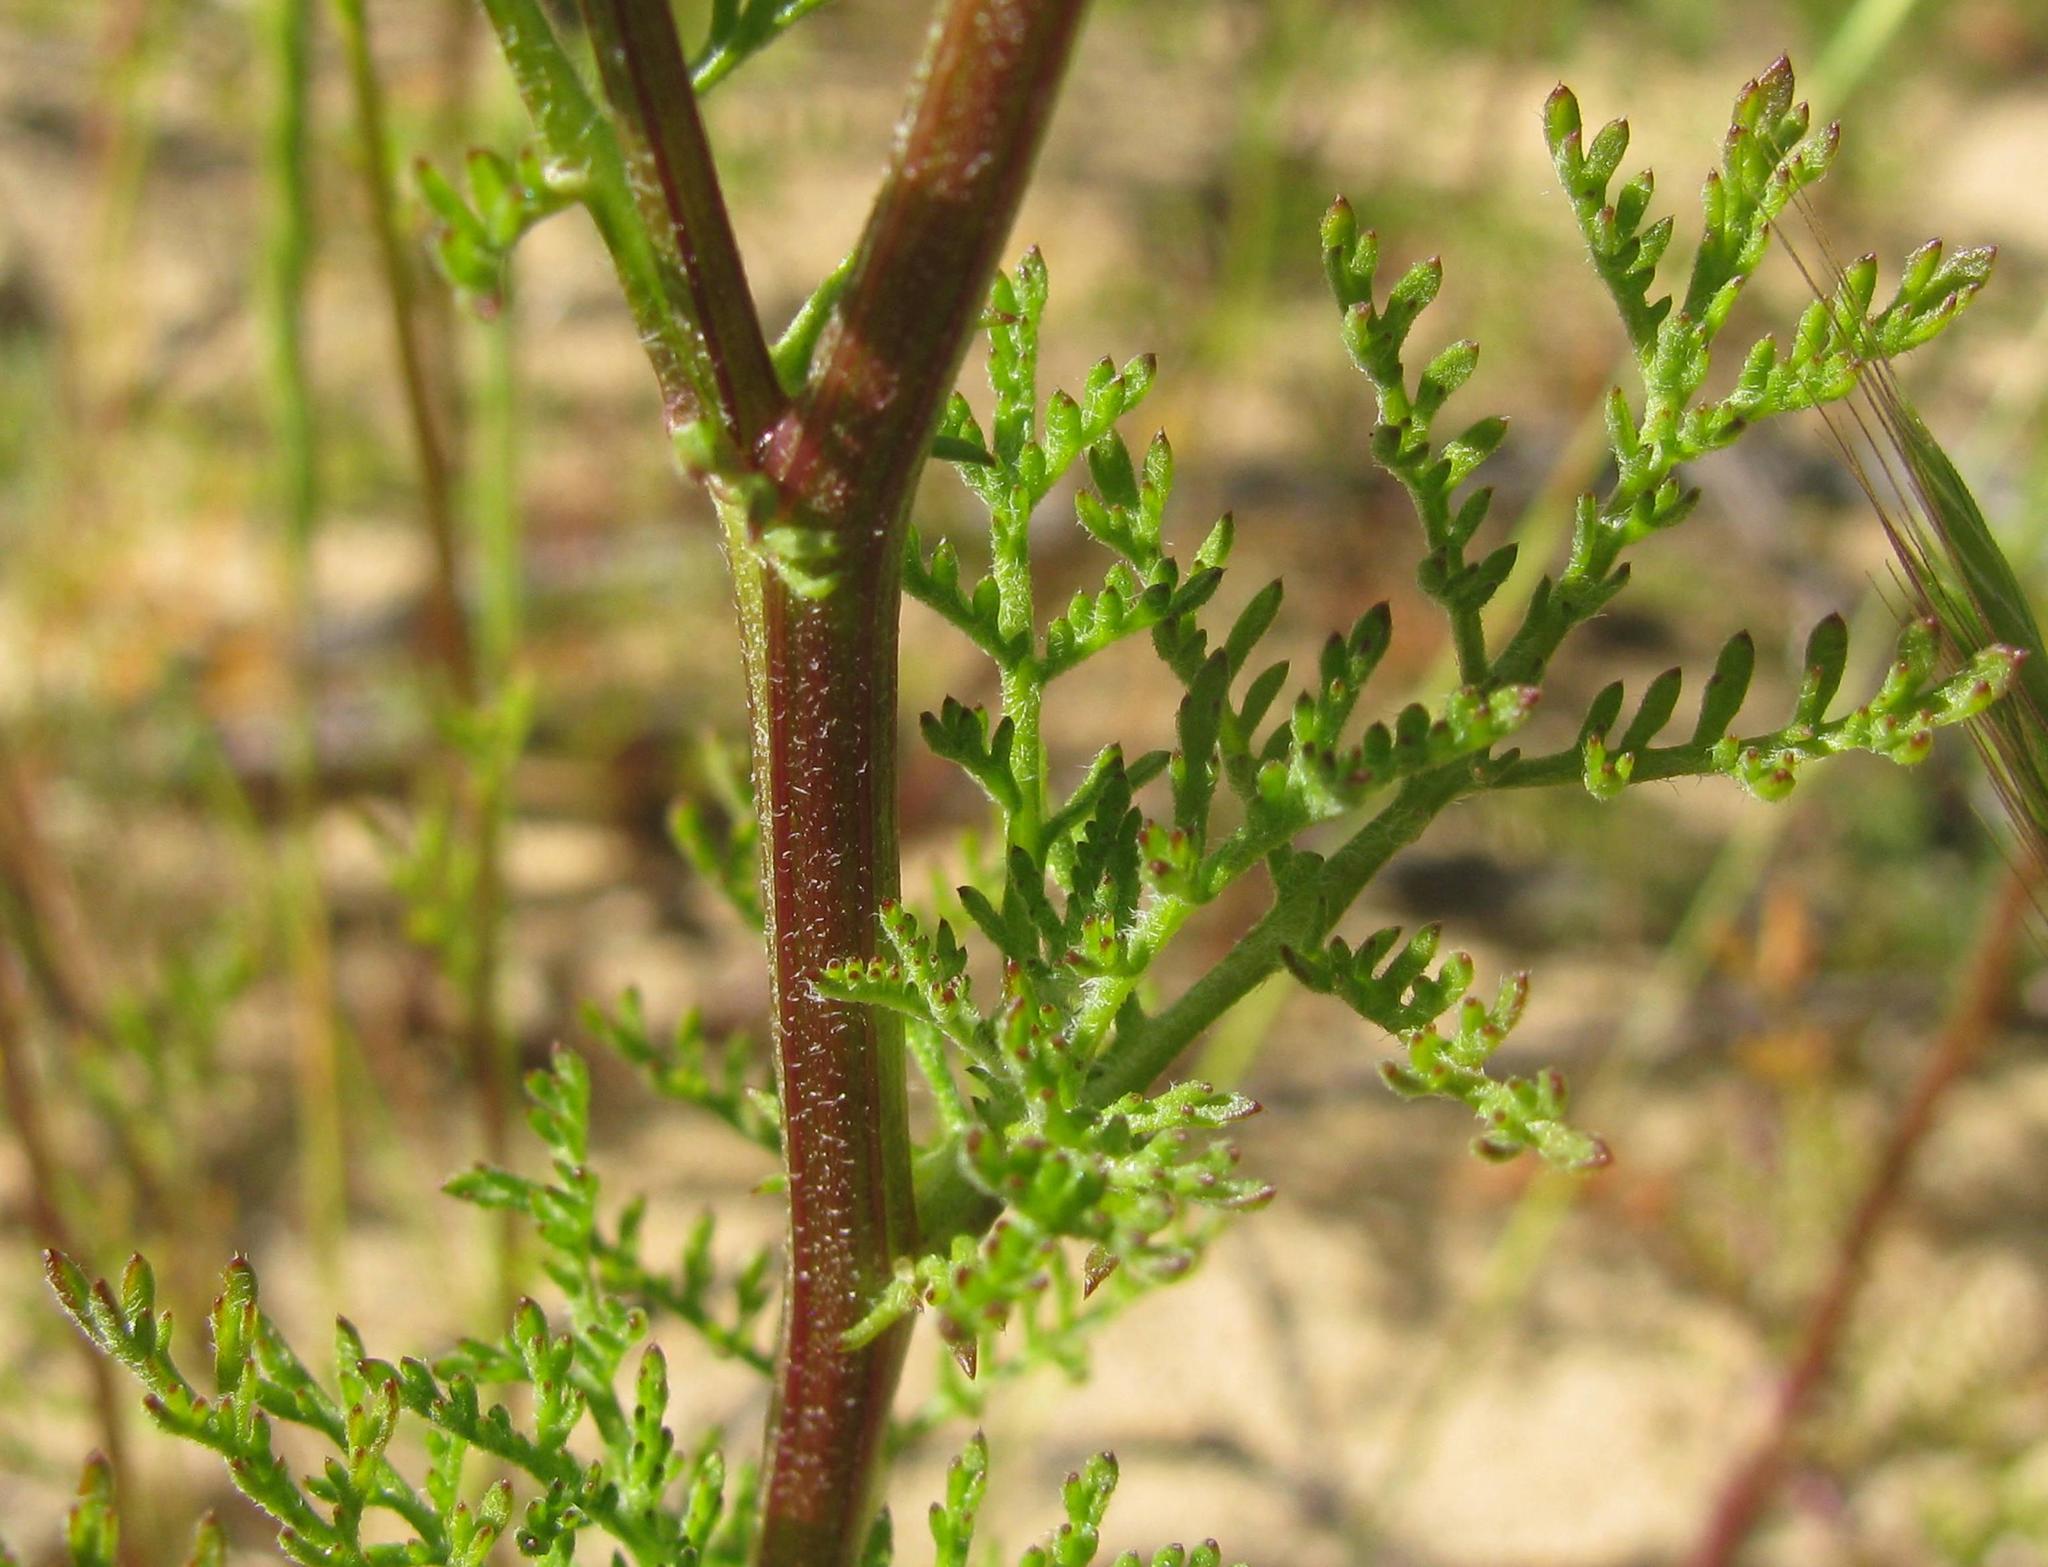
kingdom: Plantae
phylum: Tracheophyta
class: Magnoliopsida
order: Asterales
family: Asteraceae
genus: Oncosiphon
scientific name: Oncosiphon grandiflorus
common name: Swollen-flowered maywood
